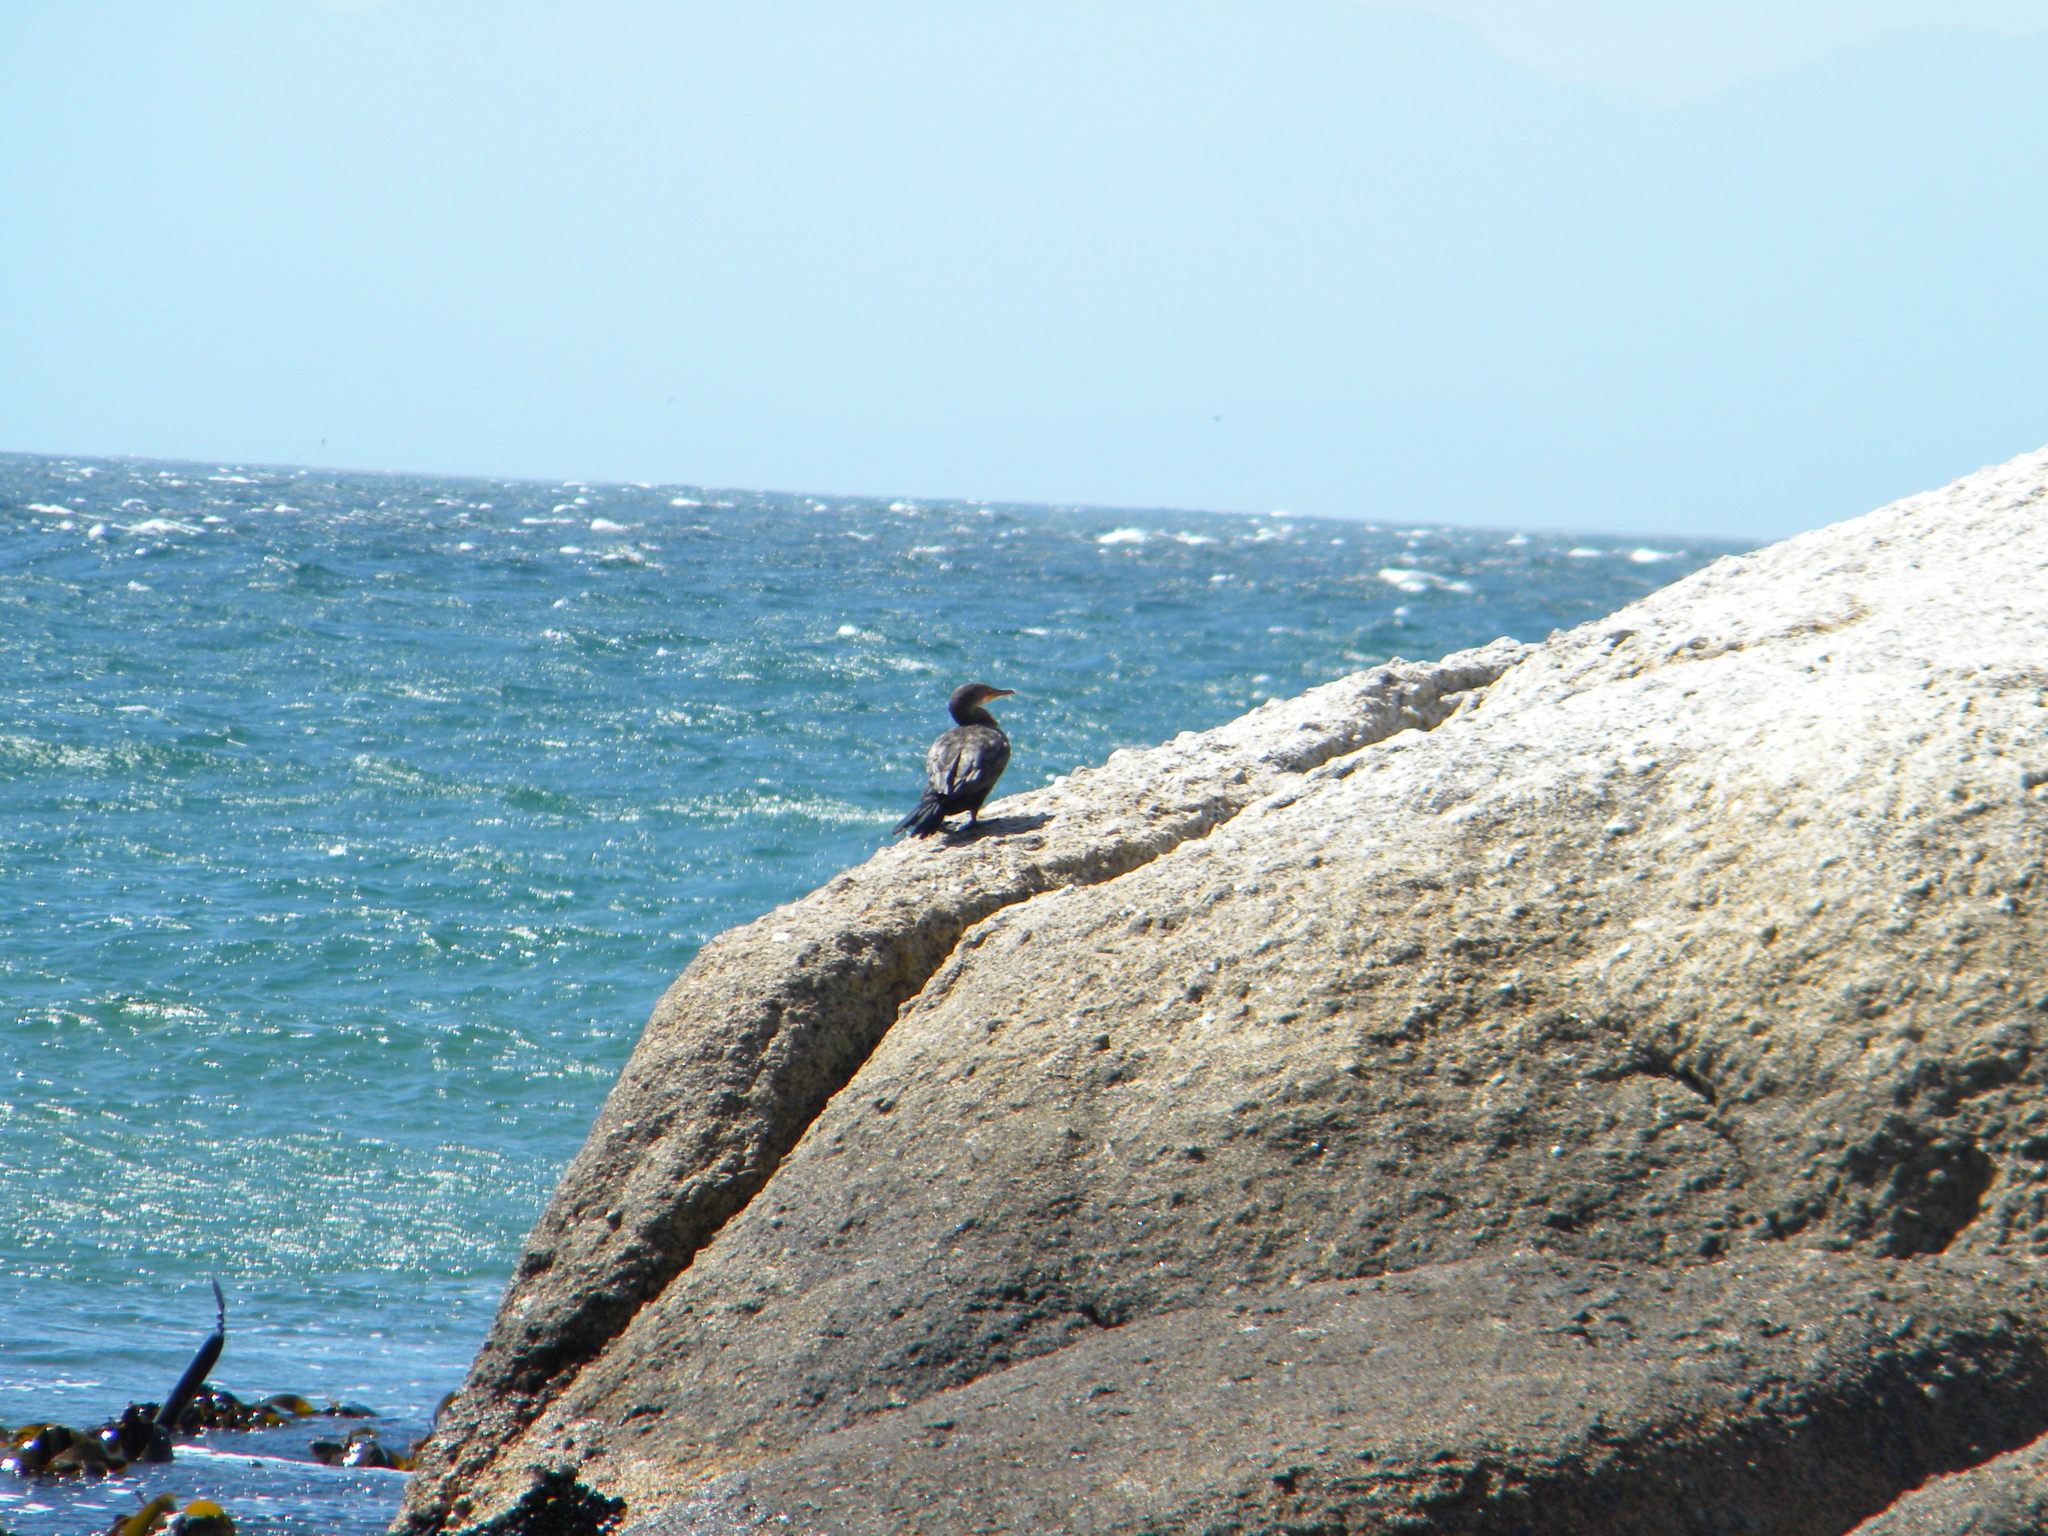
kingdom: Animalia
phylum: Chordata
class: Aves
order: Suliformes
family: Phalacrocoracidae
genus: Phalacrocorax
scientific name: Phalacrocorax capensis
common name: Cape cormorant
